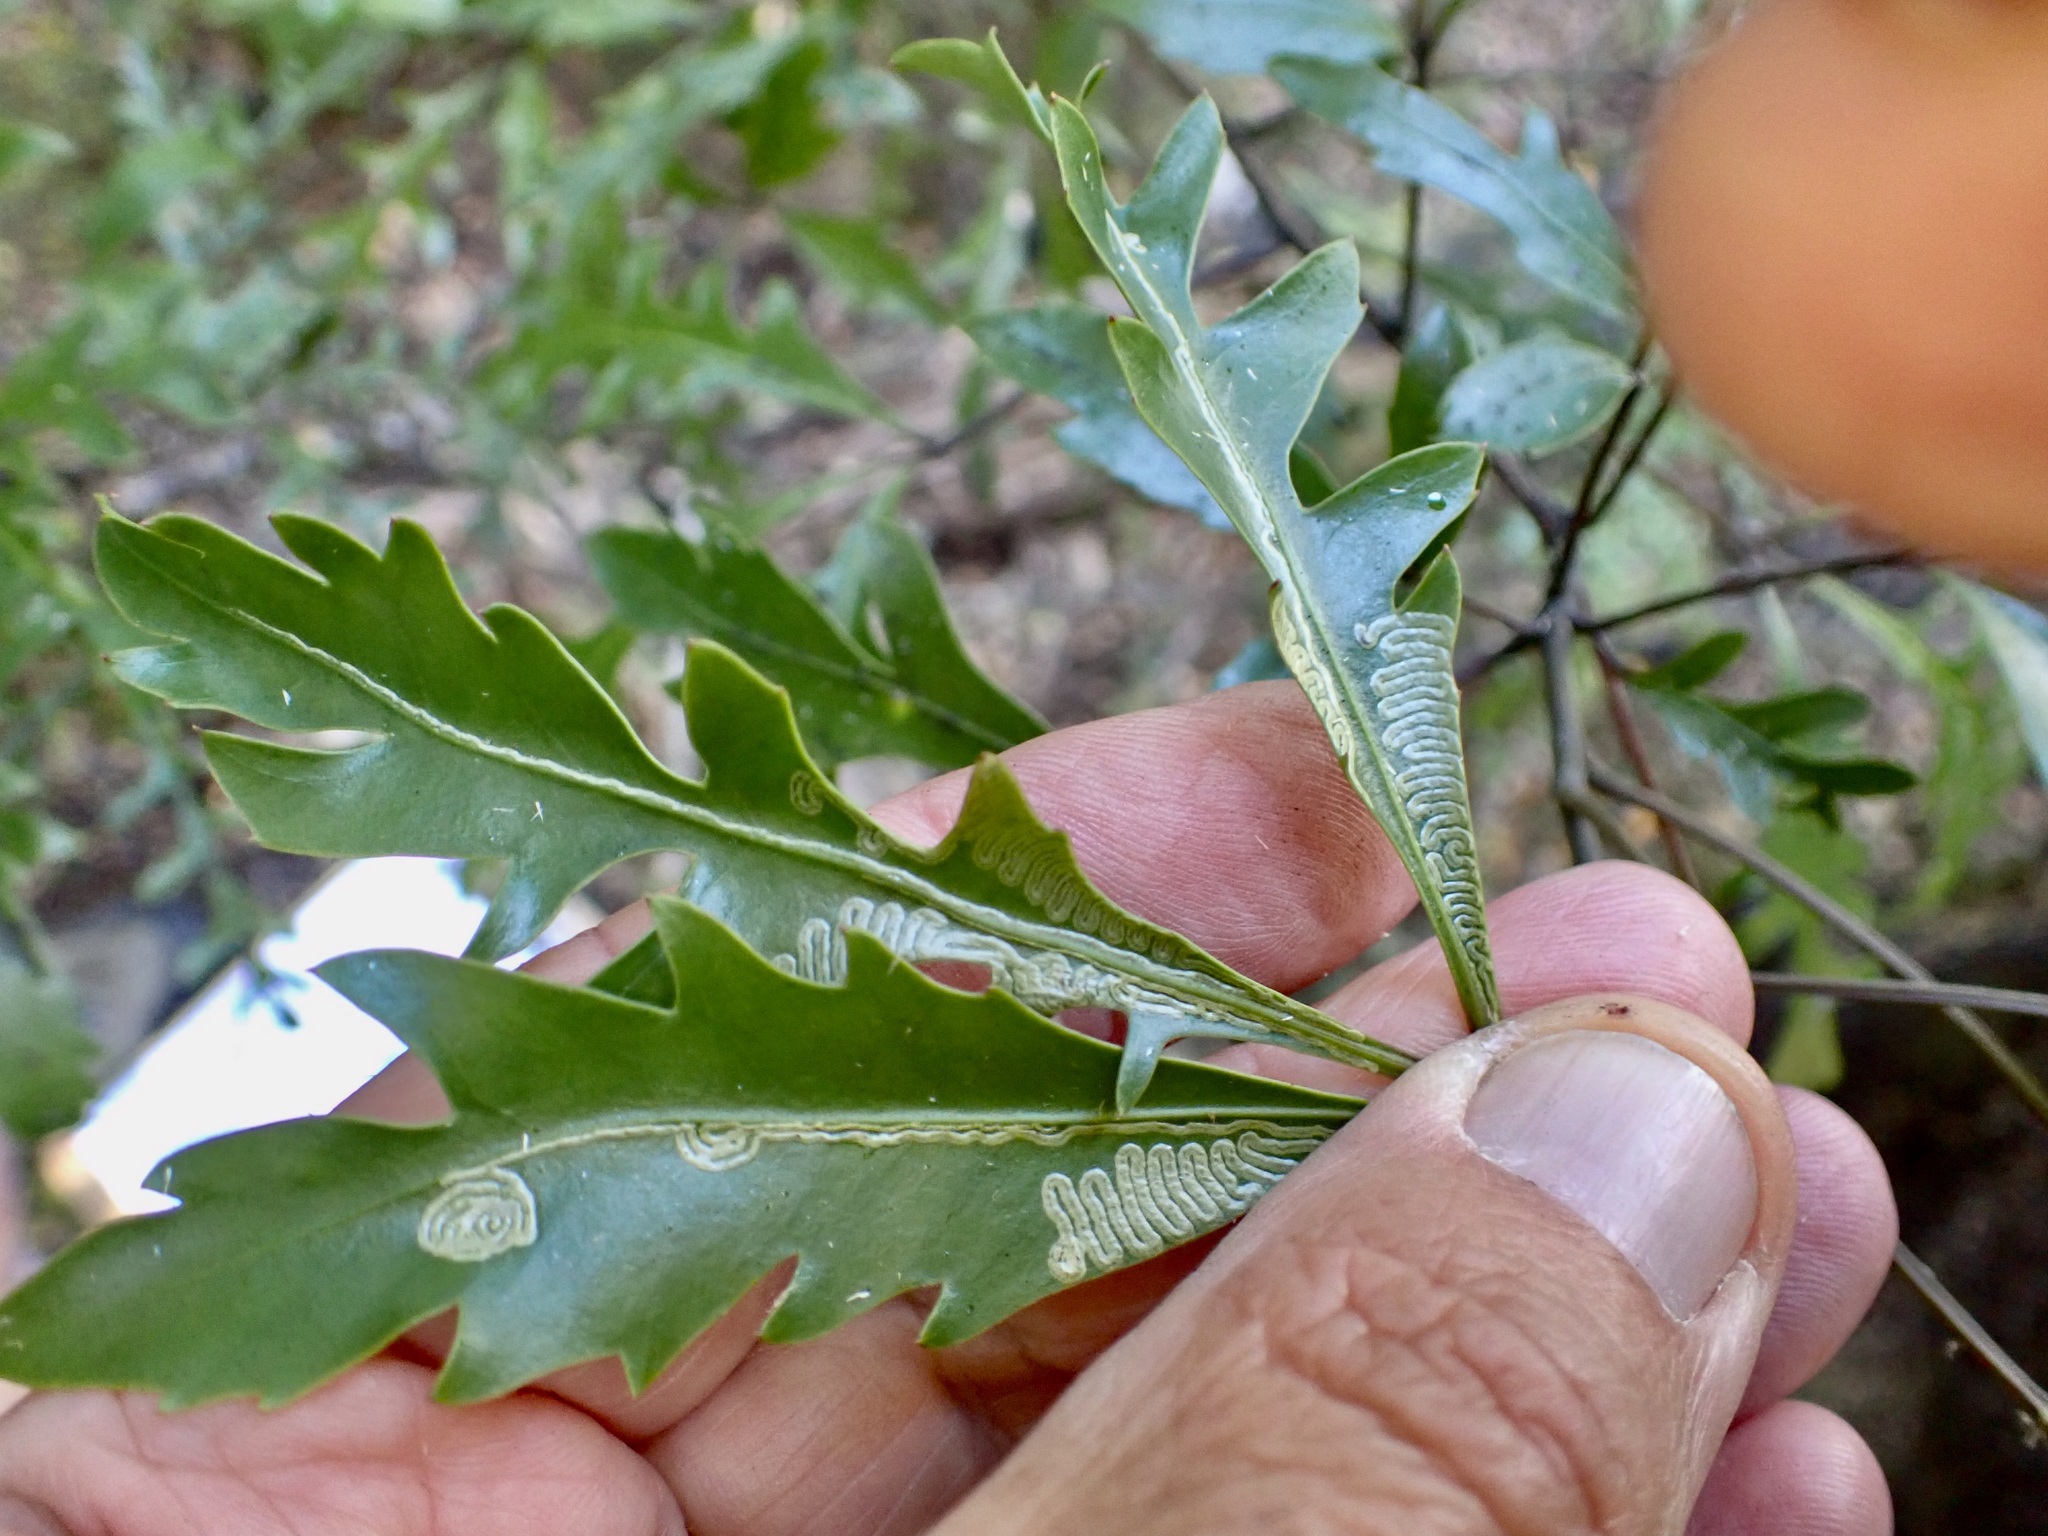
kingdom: Animalia
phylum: Arthropoda
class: Insecta
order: Lepidoptera
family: Gracillariidae
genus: Eumetriochroa
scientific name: Eumetriochroa panacivermiforma
